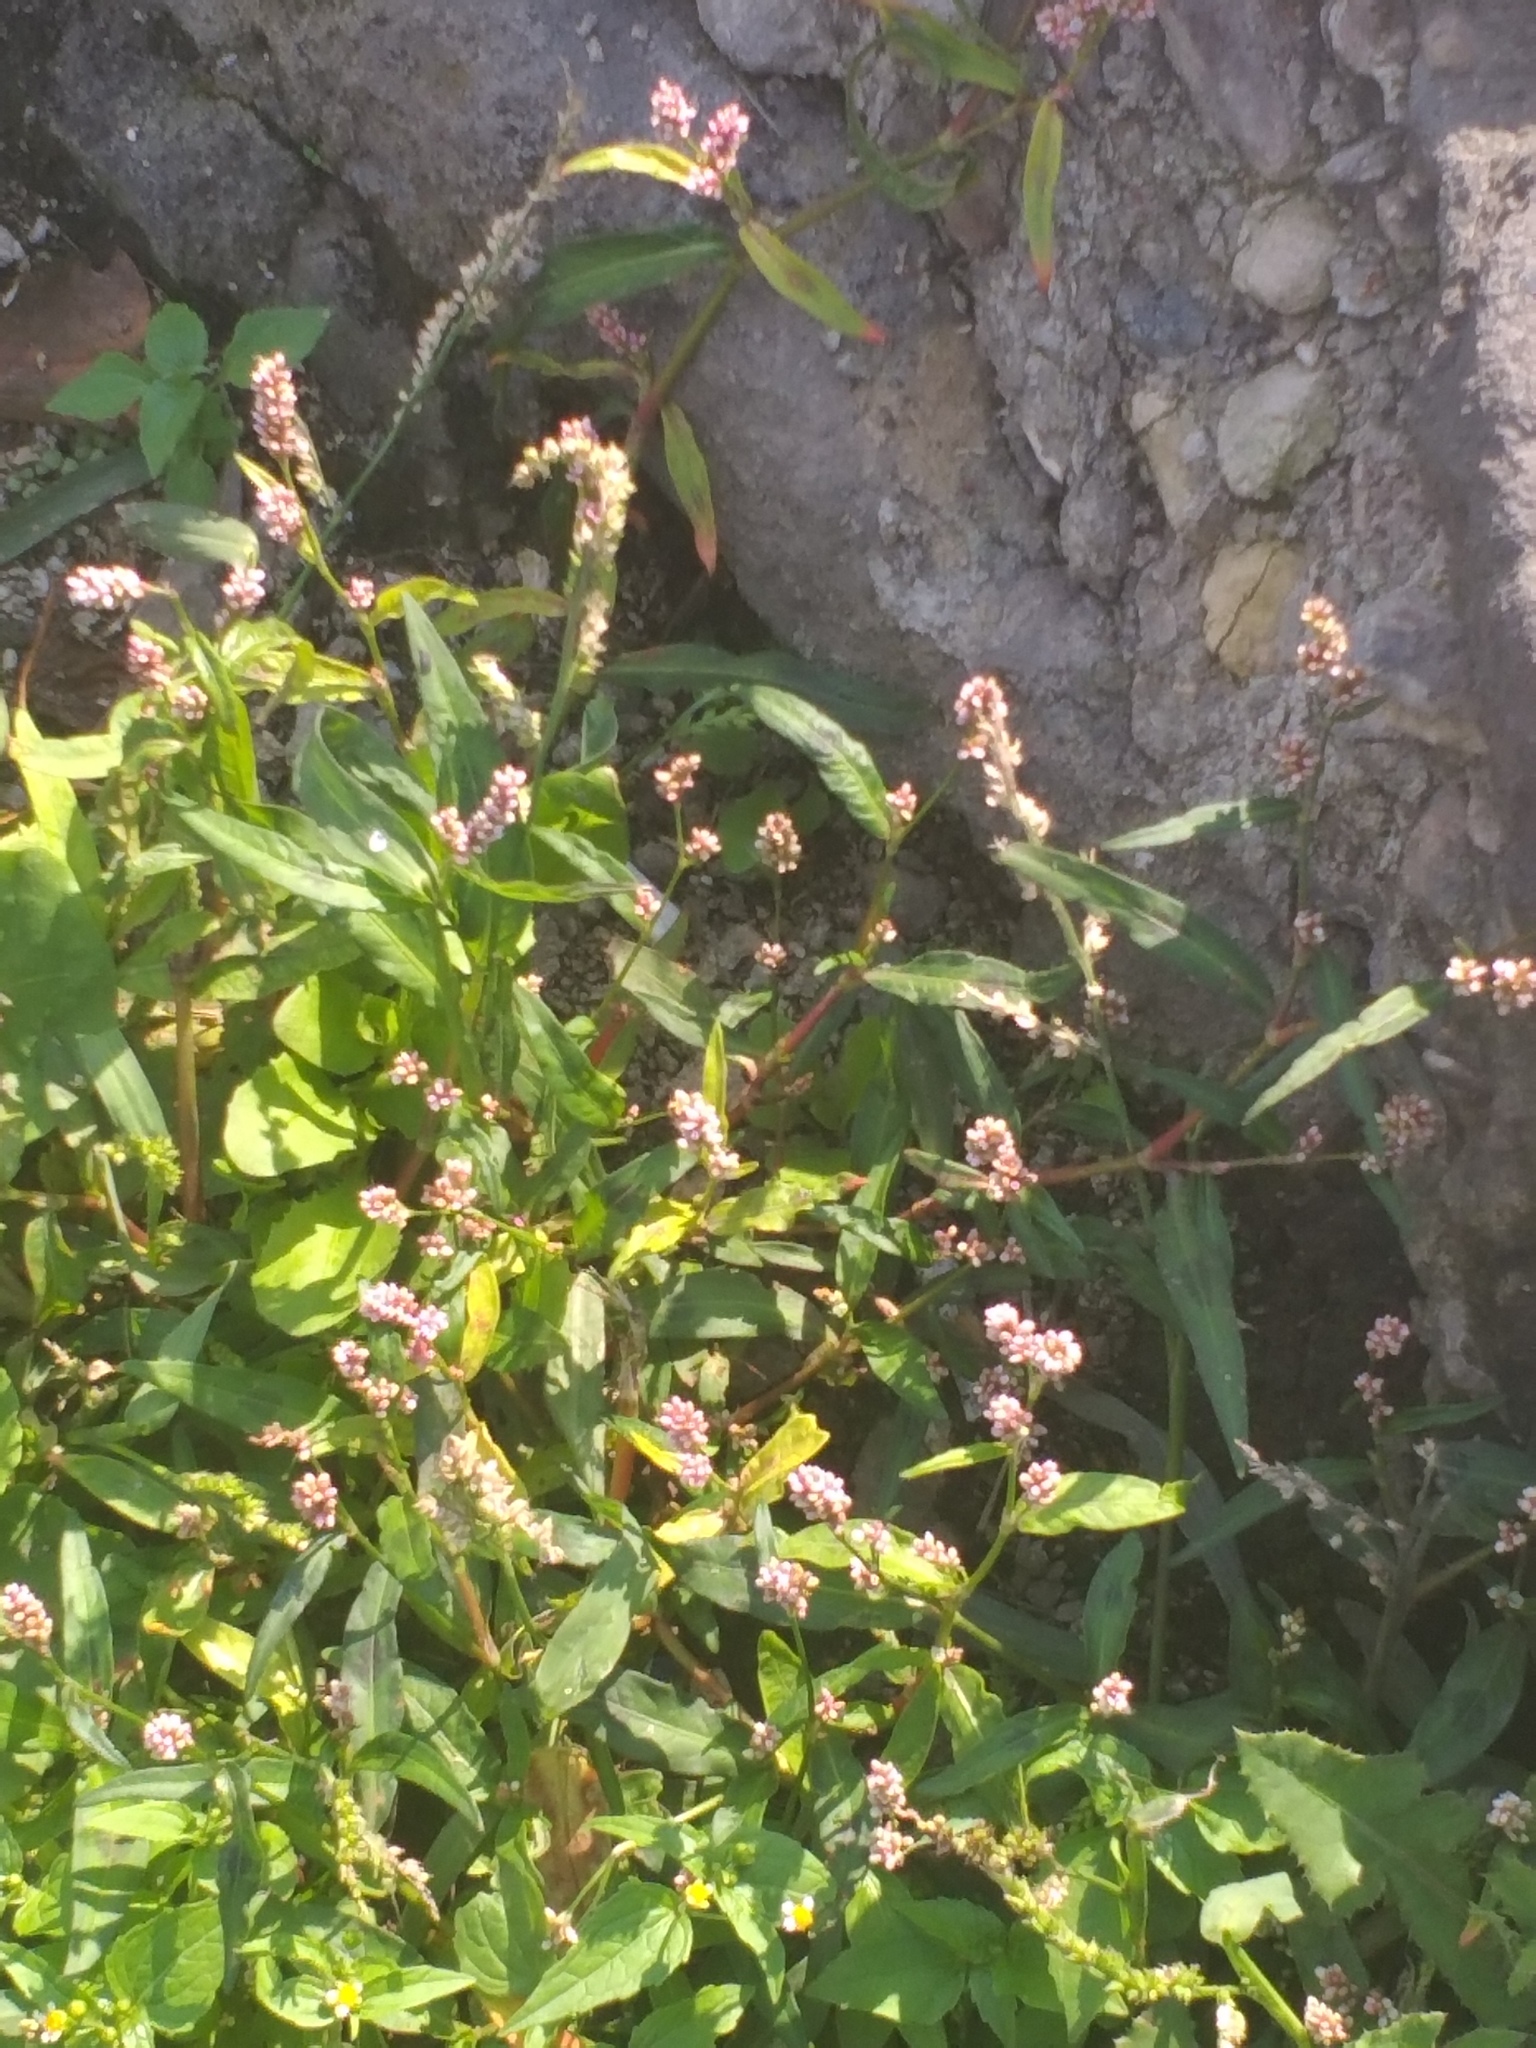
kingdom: Plantae
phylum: Tracheophyta
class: Magnoliopsida
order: Caryophyllales
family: Polygonaceae
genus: Persicaria
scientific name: Persicaria maculosa
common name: Redshank
